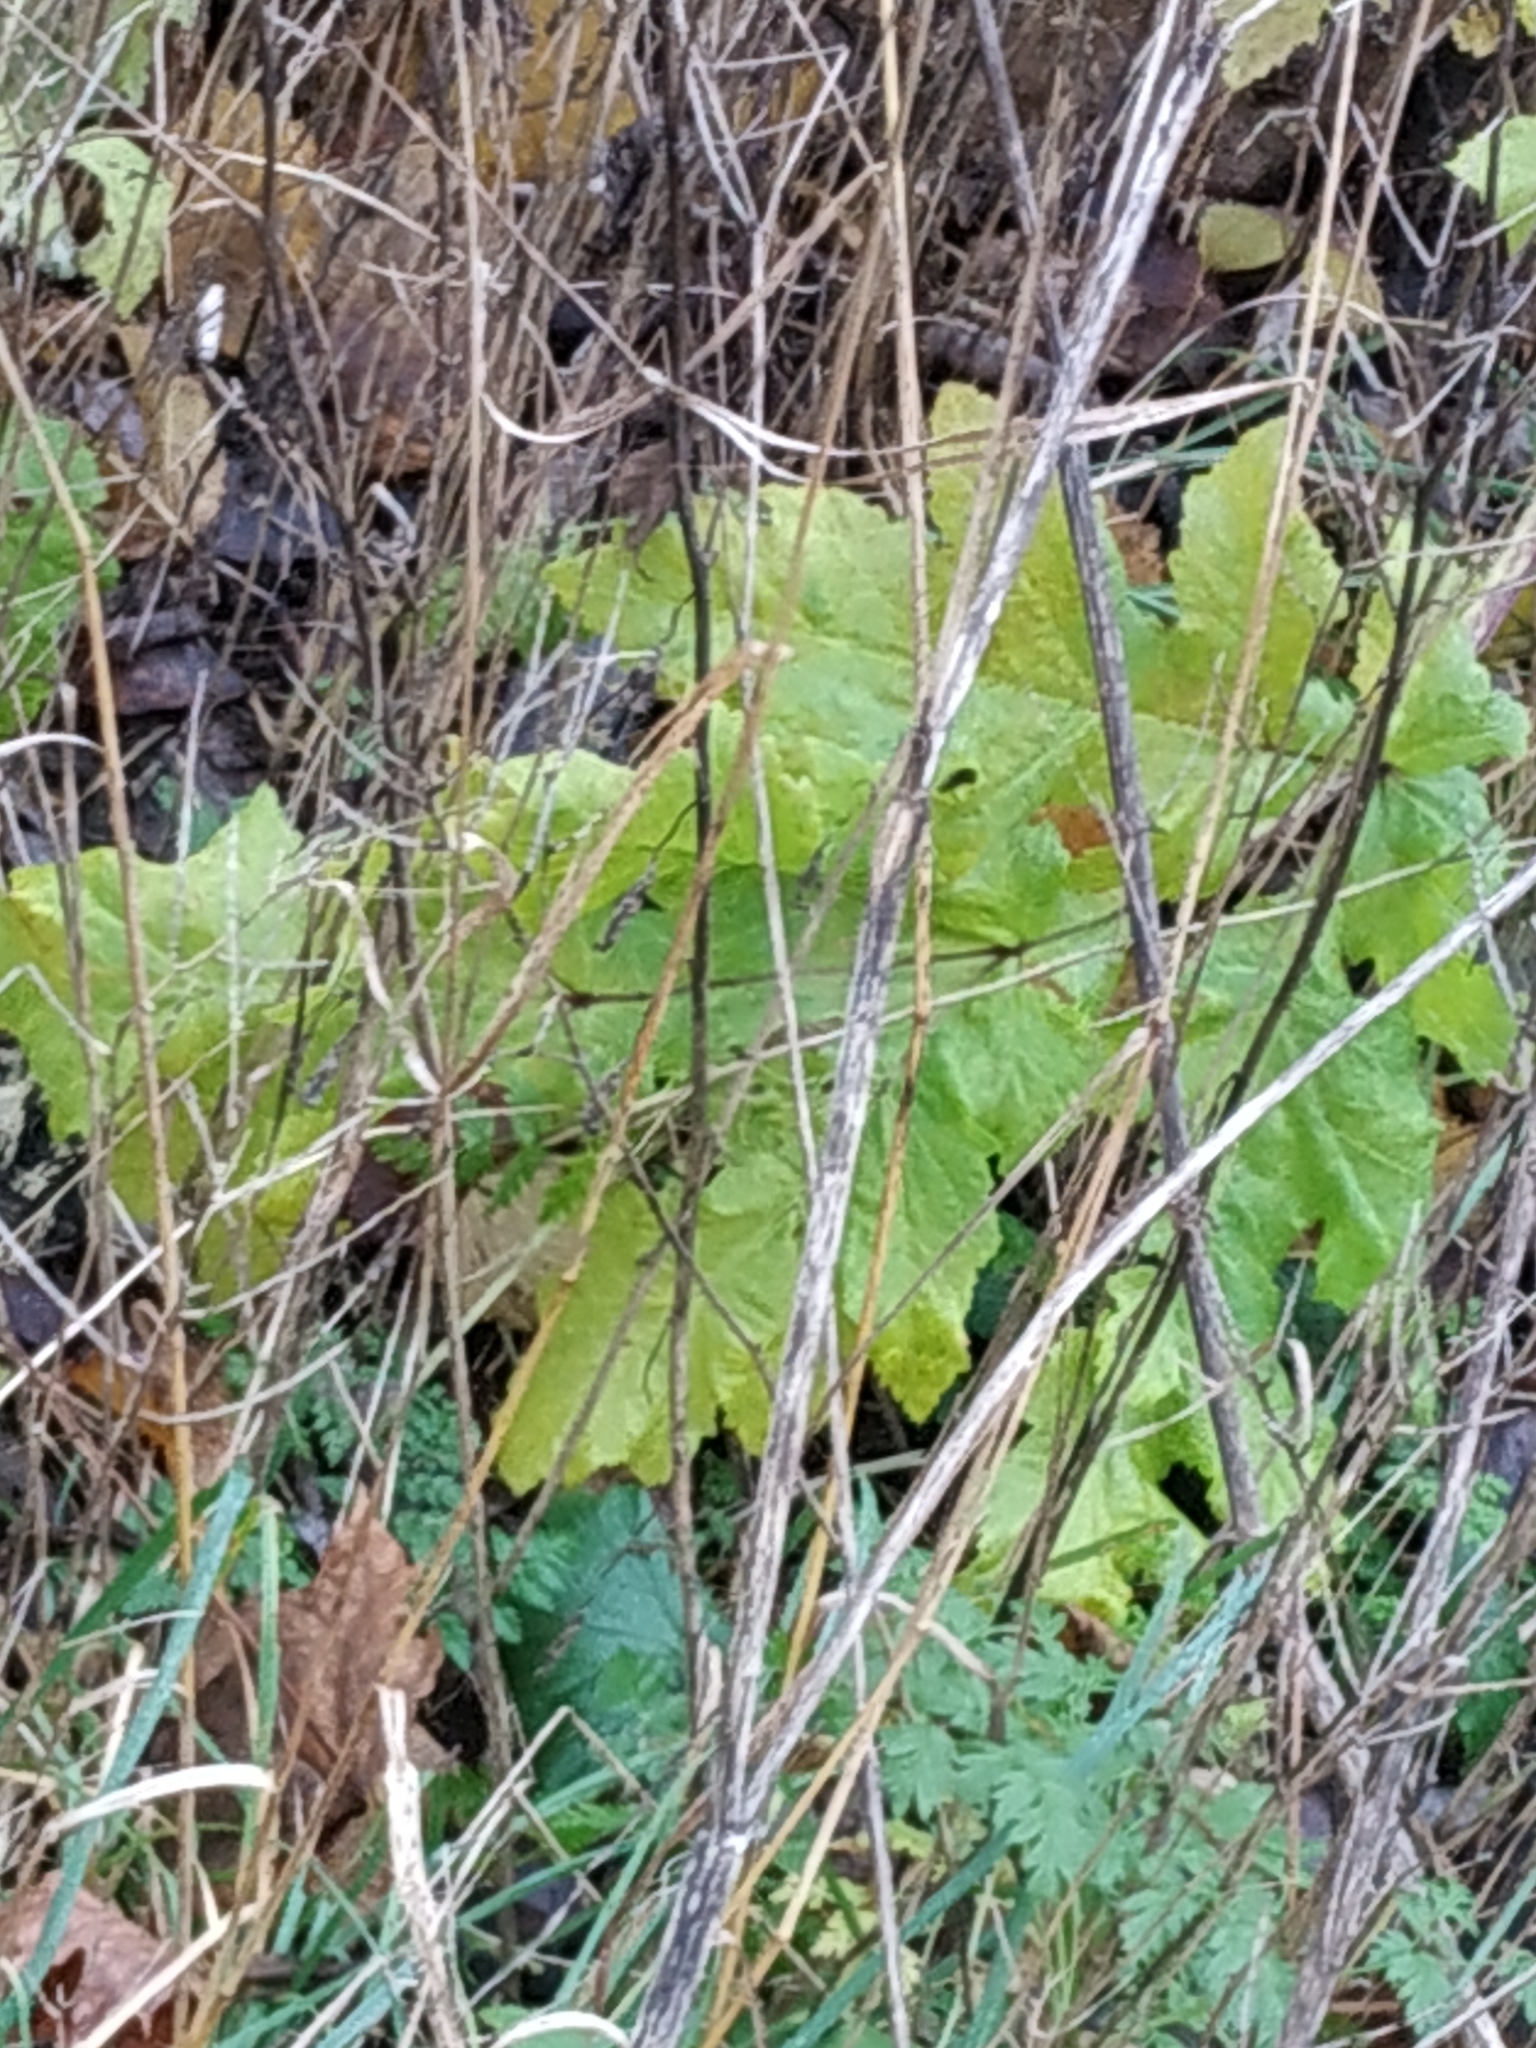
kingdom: Plantae
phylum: Tracheophyta
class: Magnoliopsida
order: Apiales
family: Apiaceae
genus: Heracleum
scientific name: Heracleum sosnowskyi
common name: Sosnowsky's hogweed
